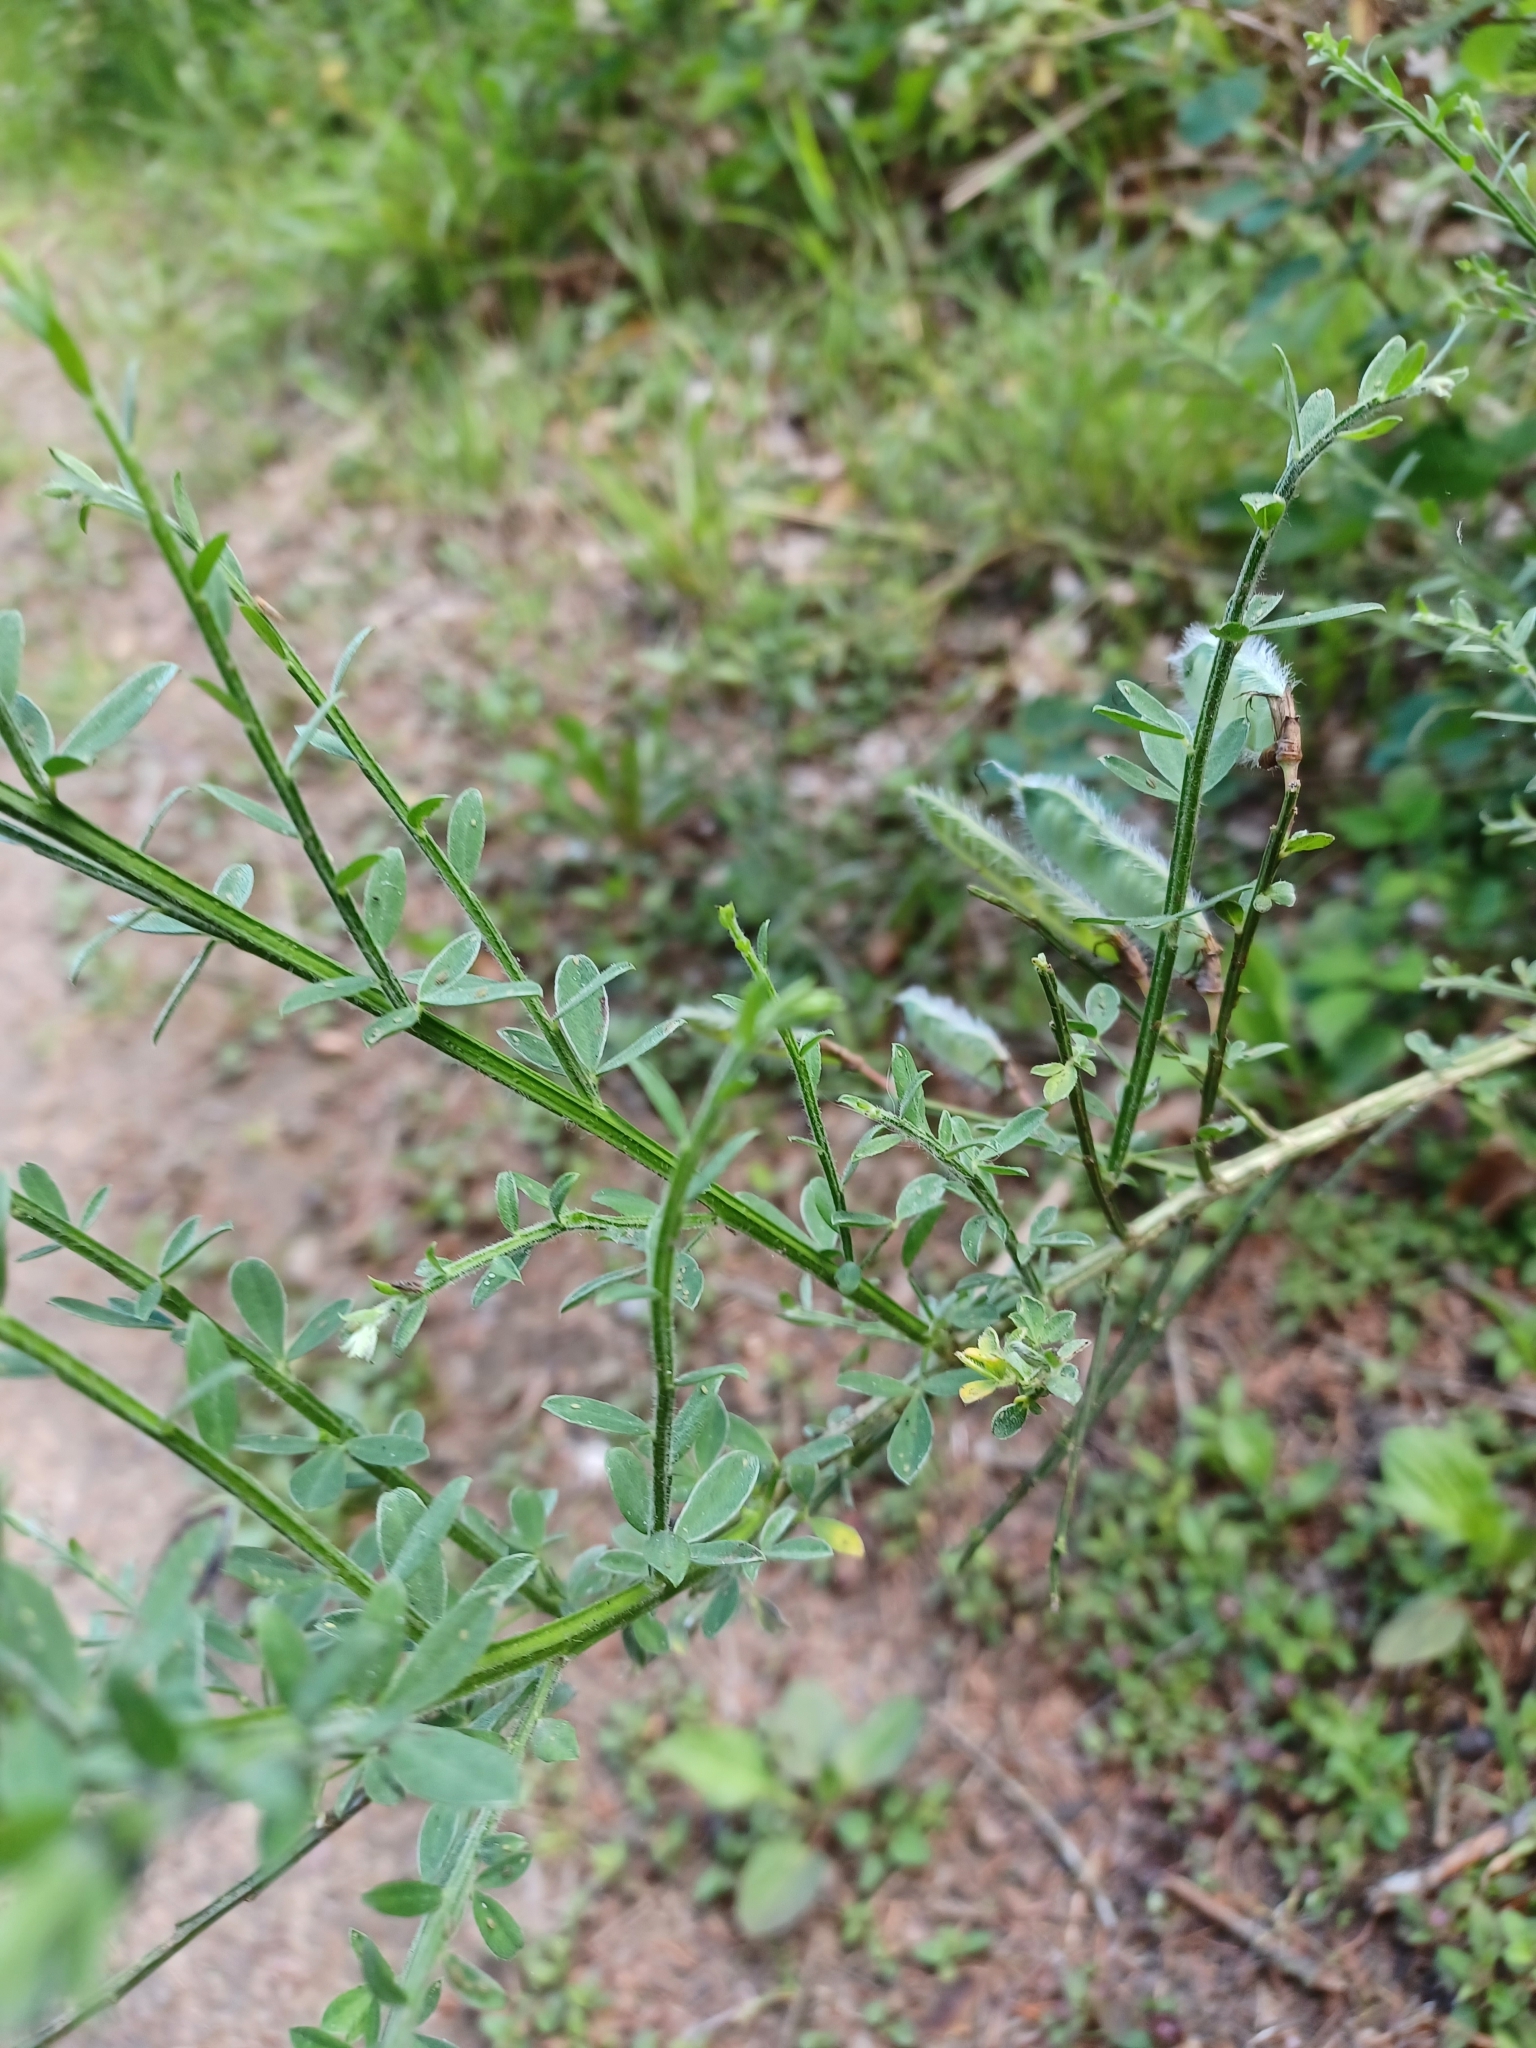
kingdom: Plantae
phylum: Tracheophyta
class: Magnoliopsida
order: Fabales
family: Fabaceae
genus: Cytisus
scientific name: Cytisus scoparius
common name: Scotch broom
